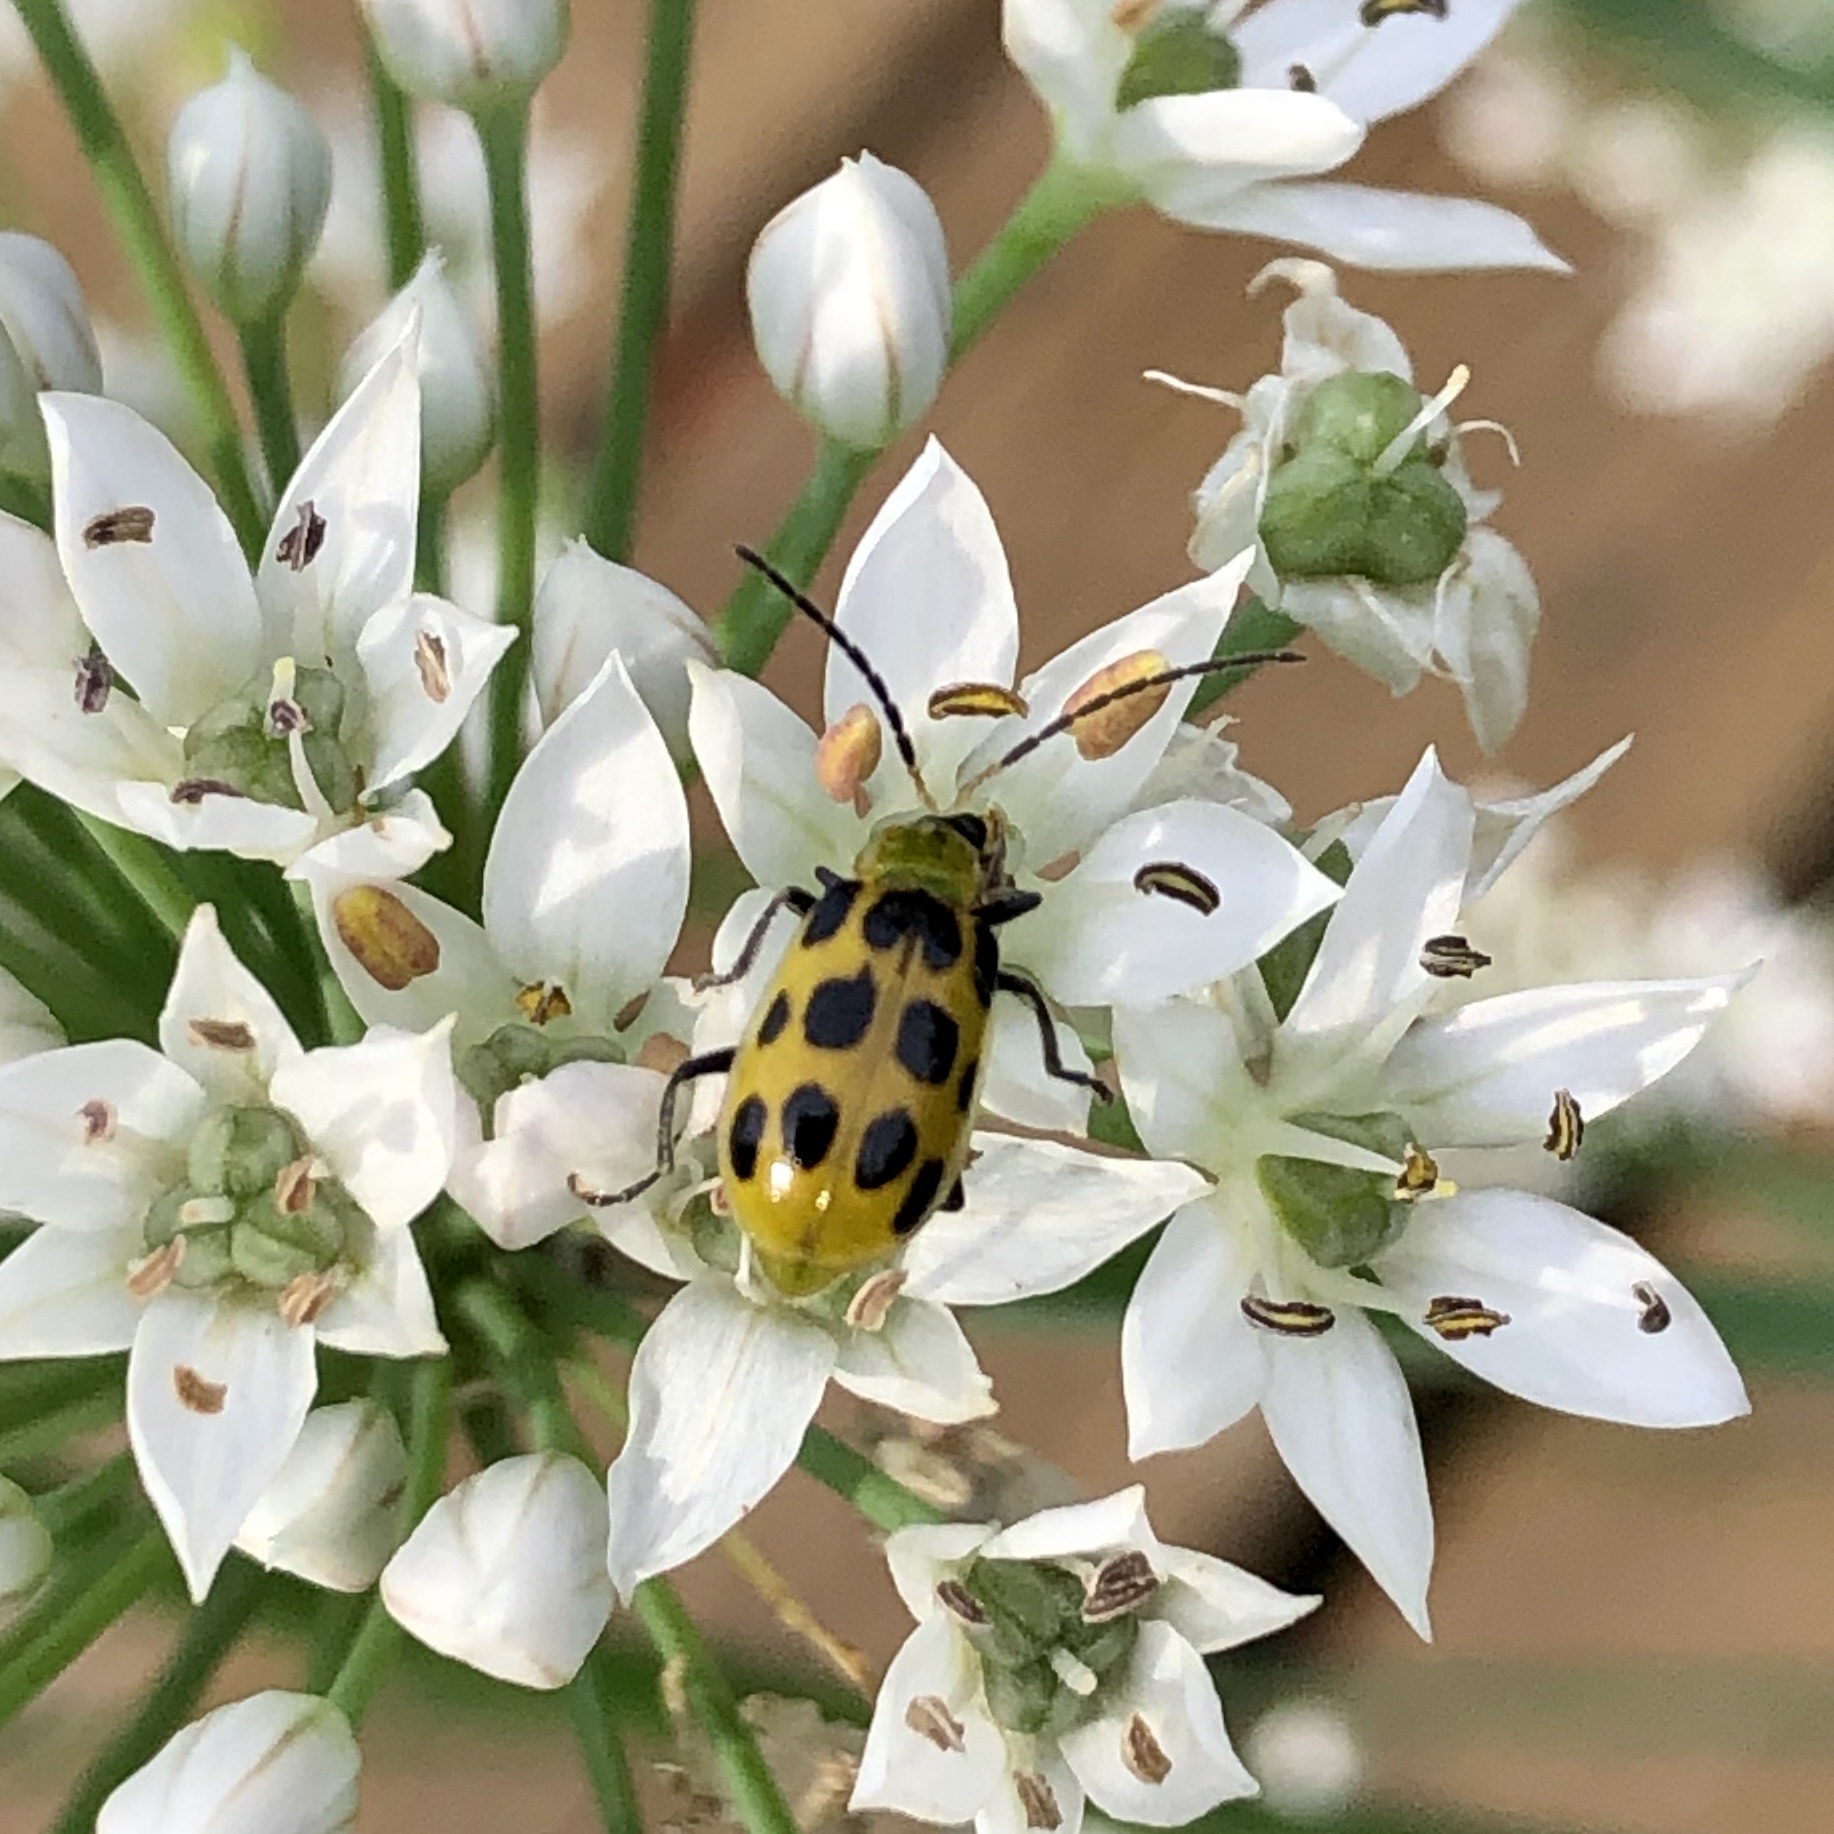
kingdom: Animalia
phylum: Arthropoda
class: Insecta
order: Coleoptera
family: Chrysomelidae
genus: Diabrotica
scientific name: Diabrotica undecimpunctata
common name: Spotted cucumber beetle
